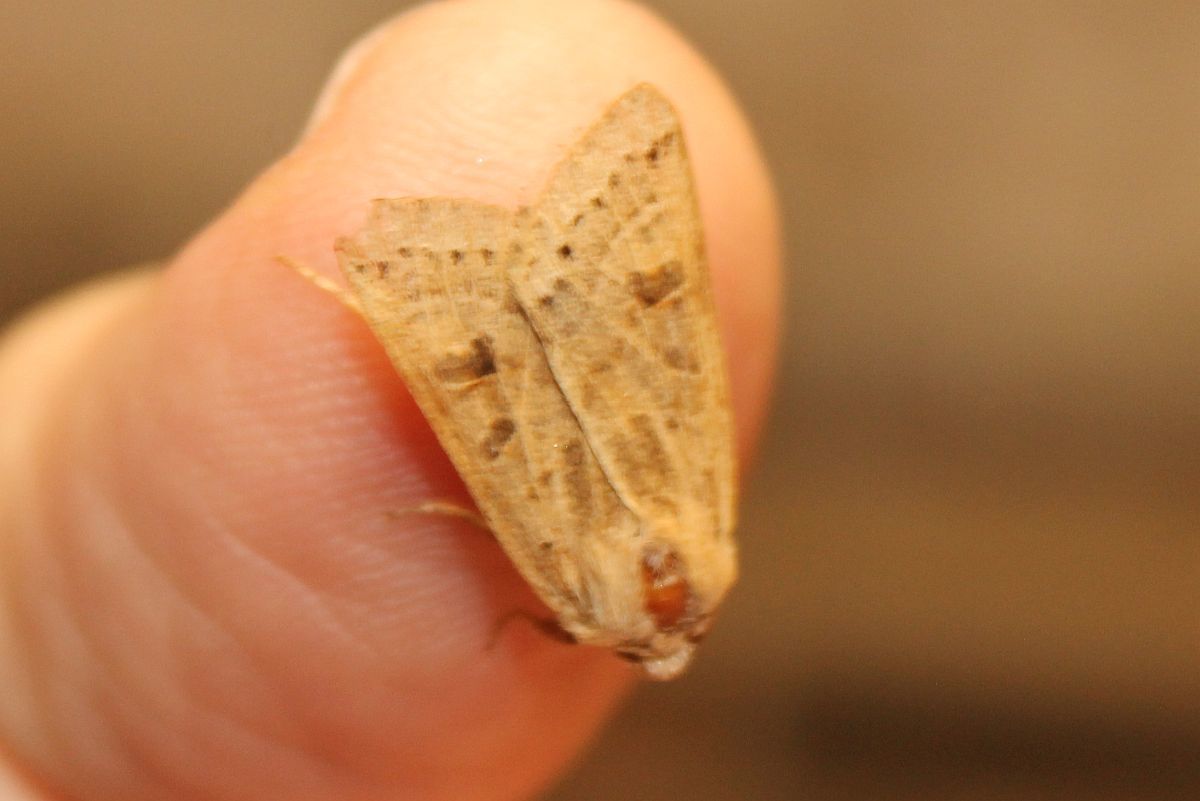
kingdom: Animalia
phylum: Arthropoda
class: Insecta
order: Lepidoptera
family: Noctuidae
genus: Agrochola
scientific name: Agrochola lunosa
